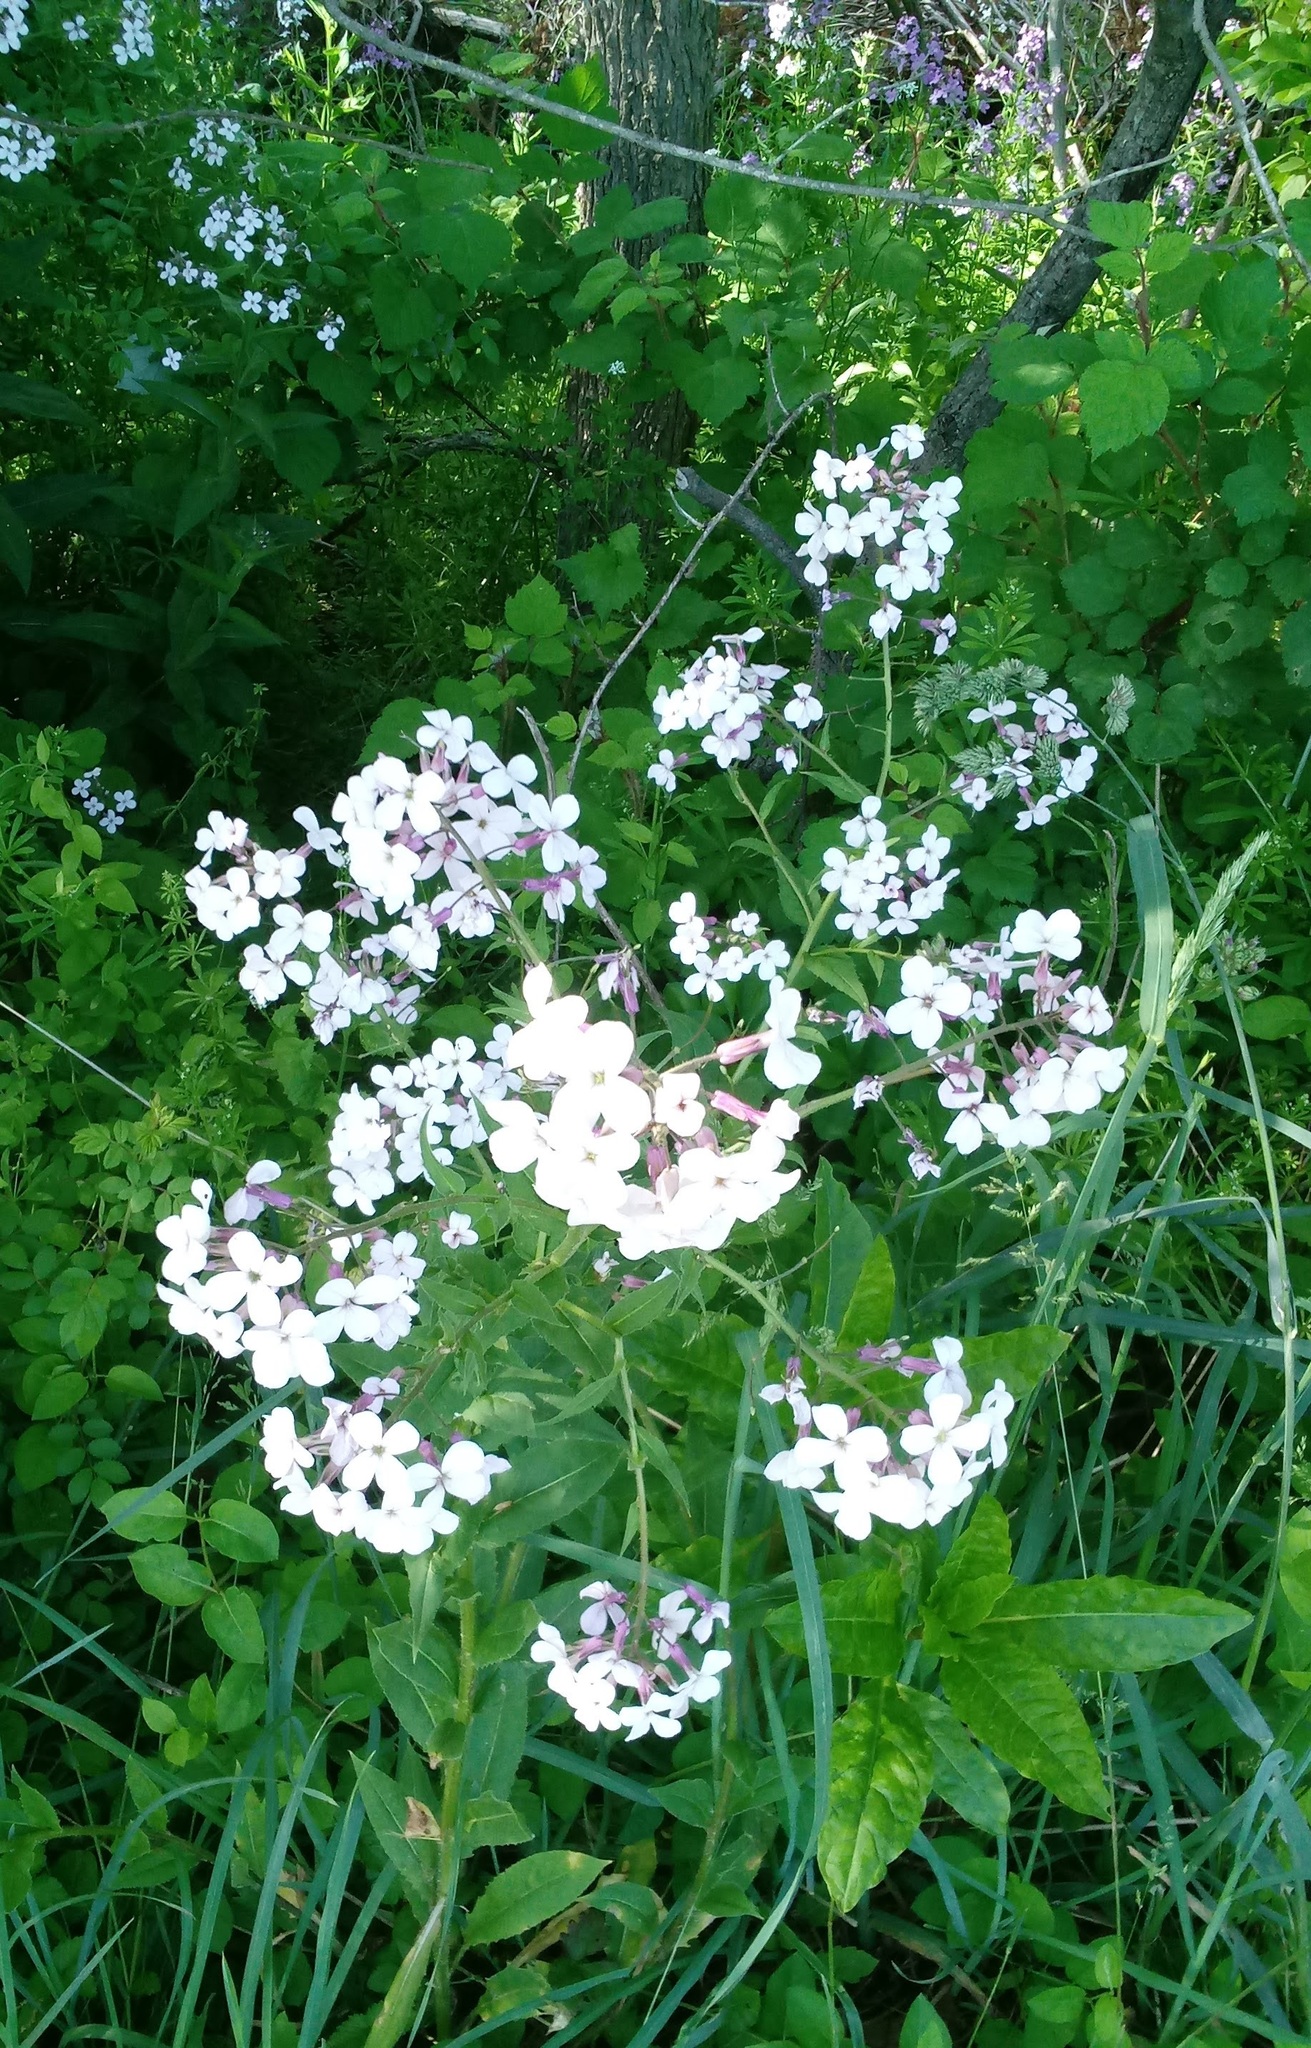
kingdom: Plantae
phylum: Tracheophyta
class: Magnoliopsida
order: Brassicales
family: Brassicaceae
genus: Hesperis
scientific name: Hesperis matronalis
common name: Dame's-violet
